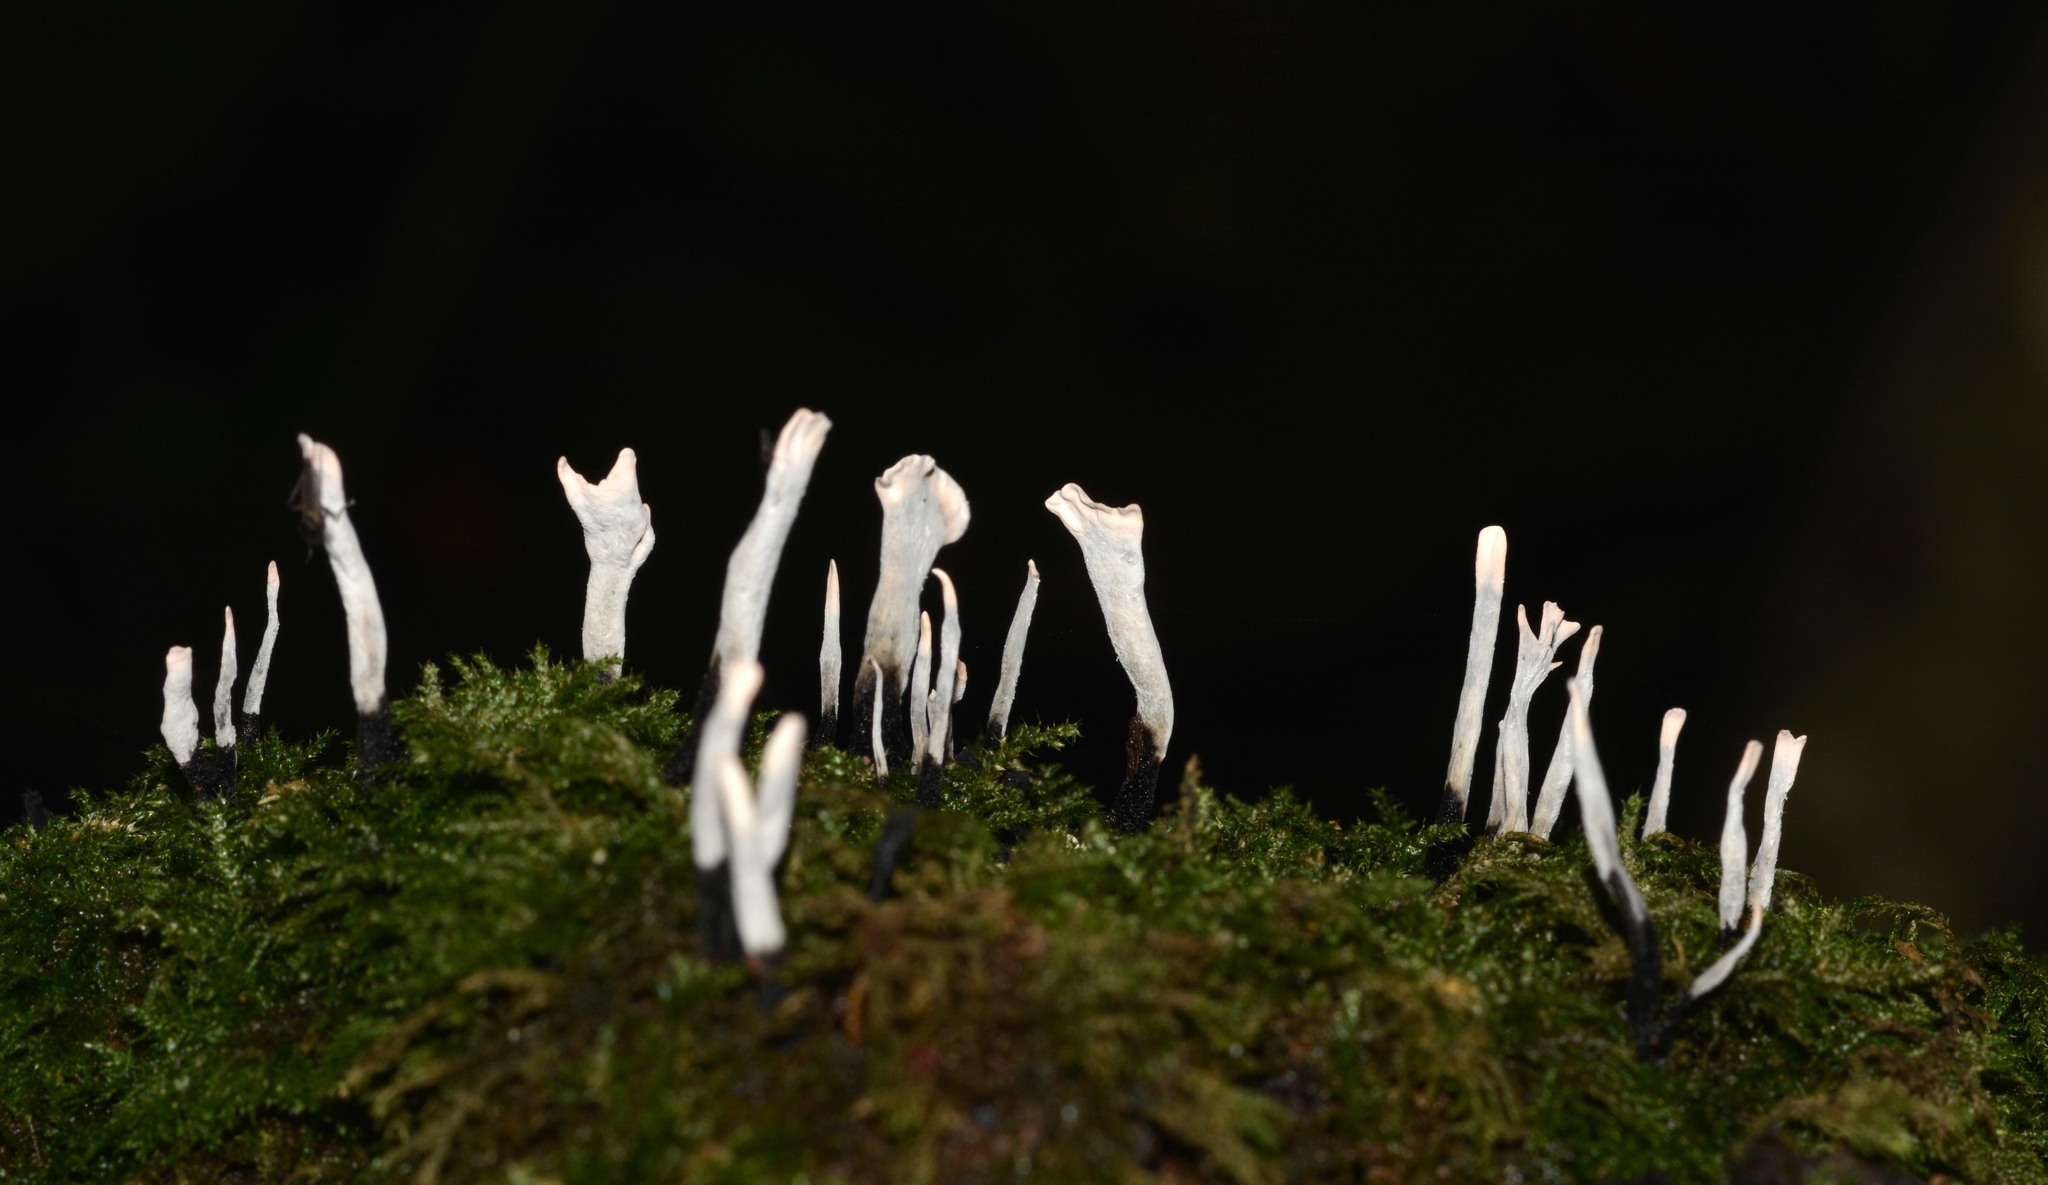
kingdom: Fungi
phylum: Ascomycota
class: Sordariomycetes
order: Xylariales
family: Xylariaceae
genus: Xylaria
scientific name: Xylaria hypoxylon
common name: Candle-snuff fungus
